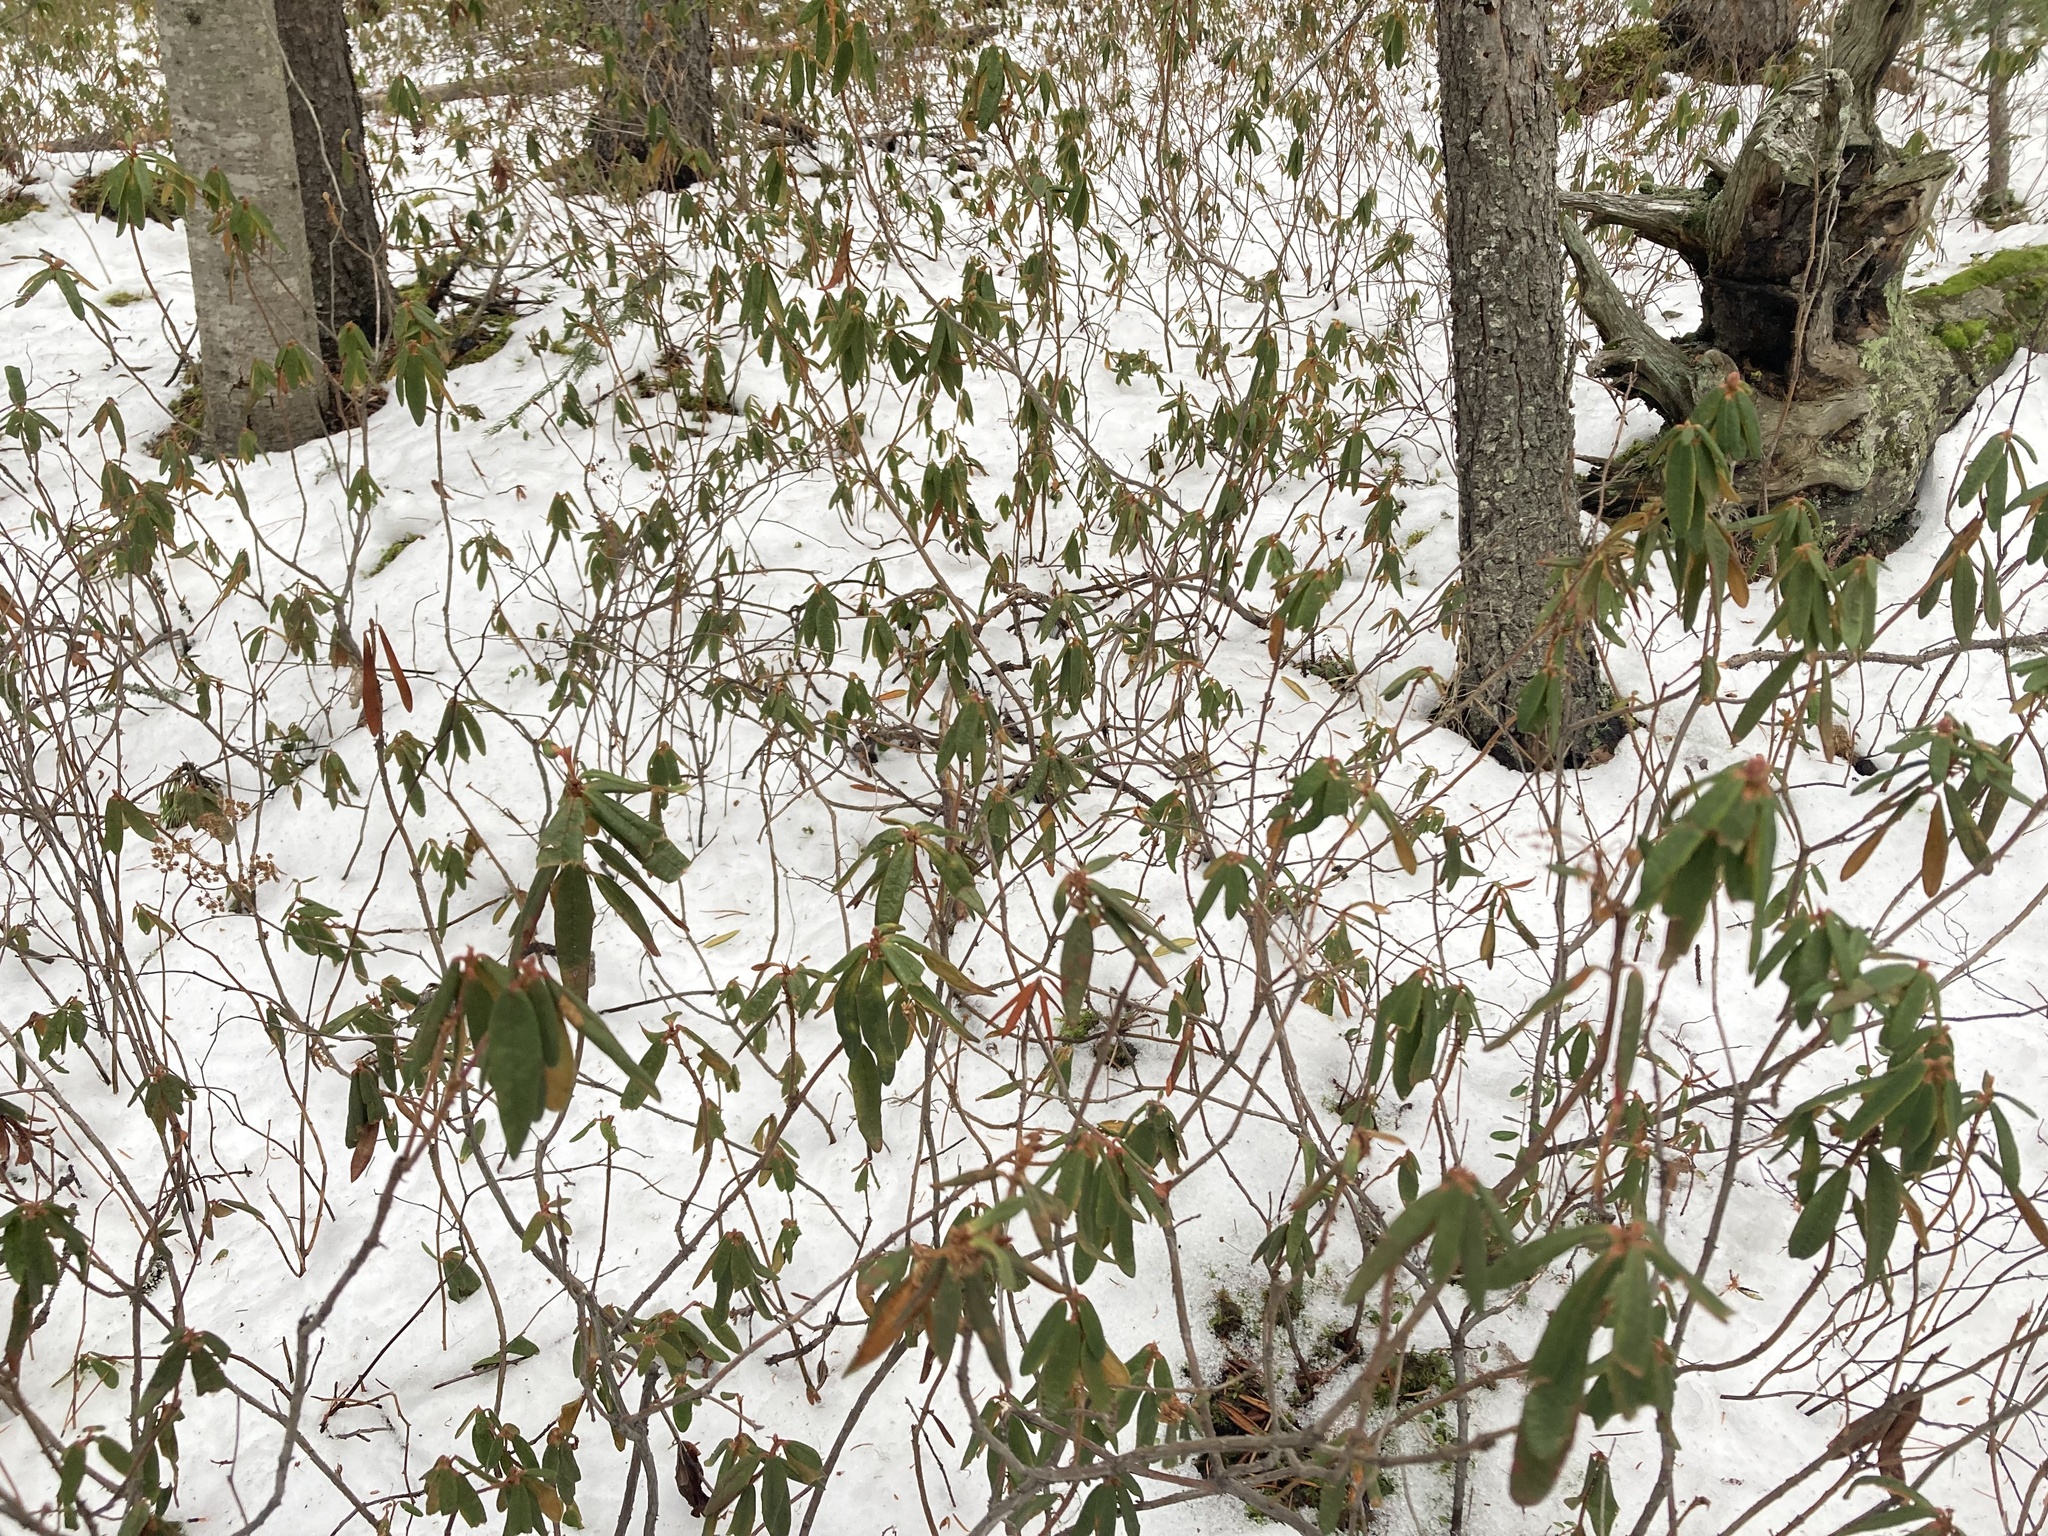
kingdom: Plantae
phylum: Tracheophyta
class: Magnoliopsida
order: Ericales
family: Ericaceae
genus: Rhododendron
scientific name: Rhododendron groenlandicum
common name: Bog labrador tea
